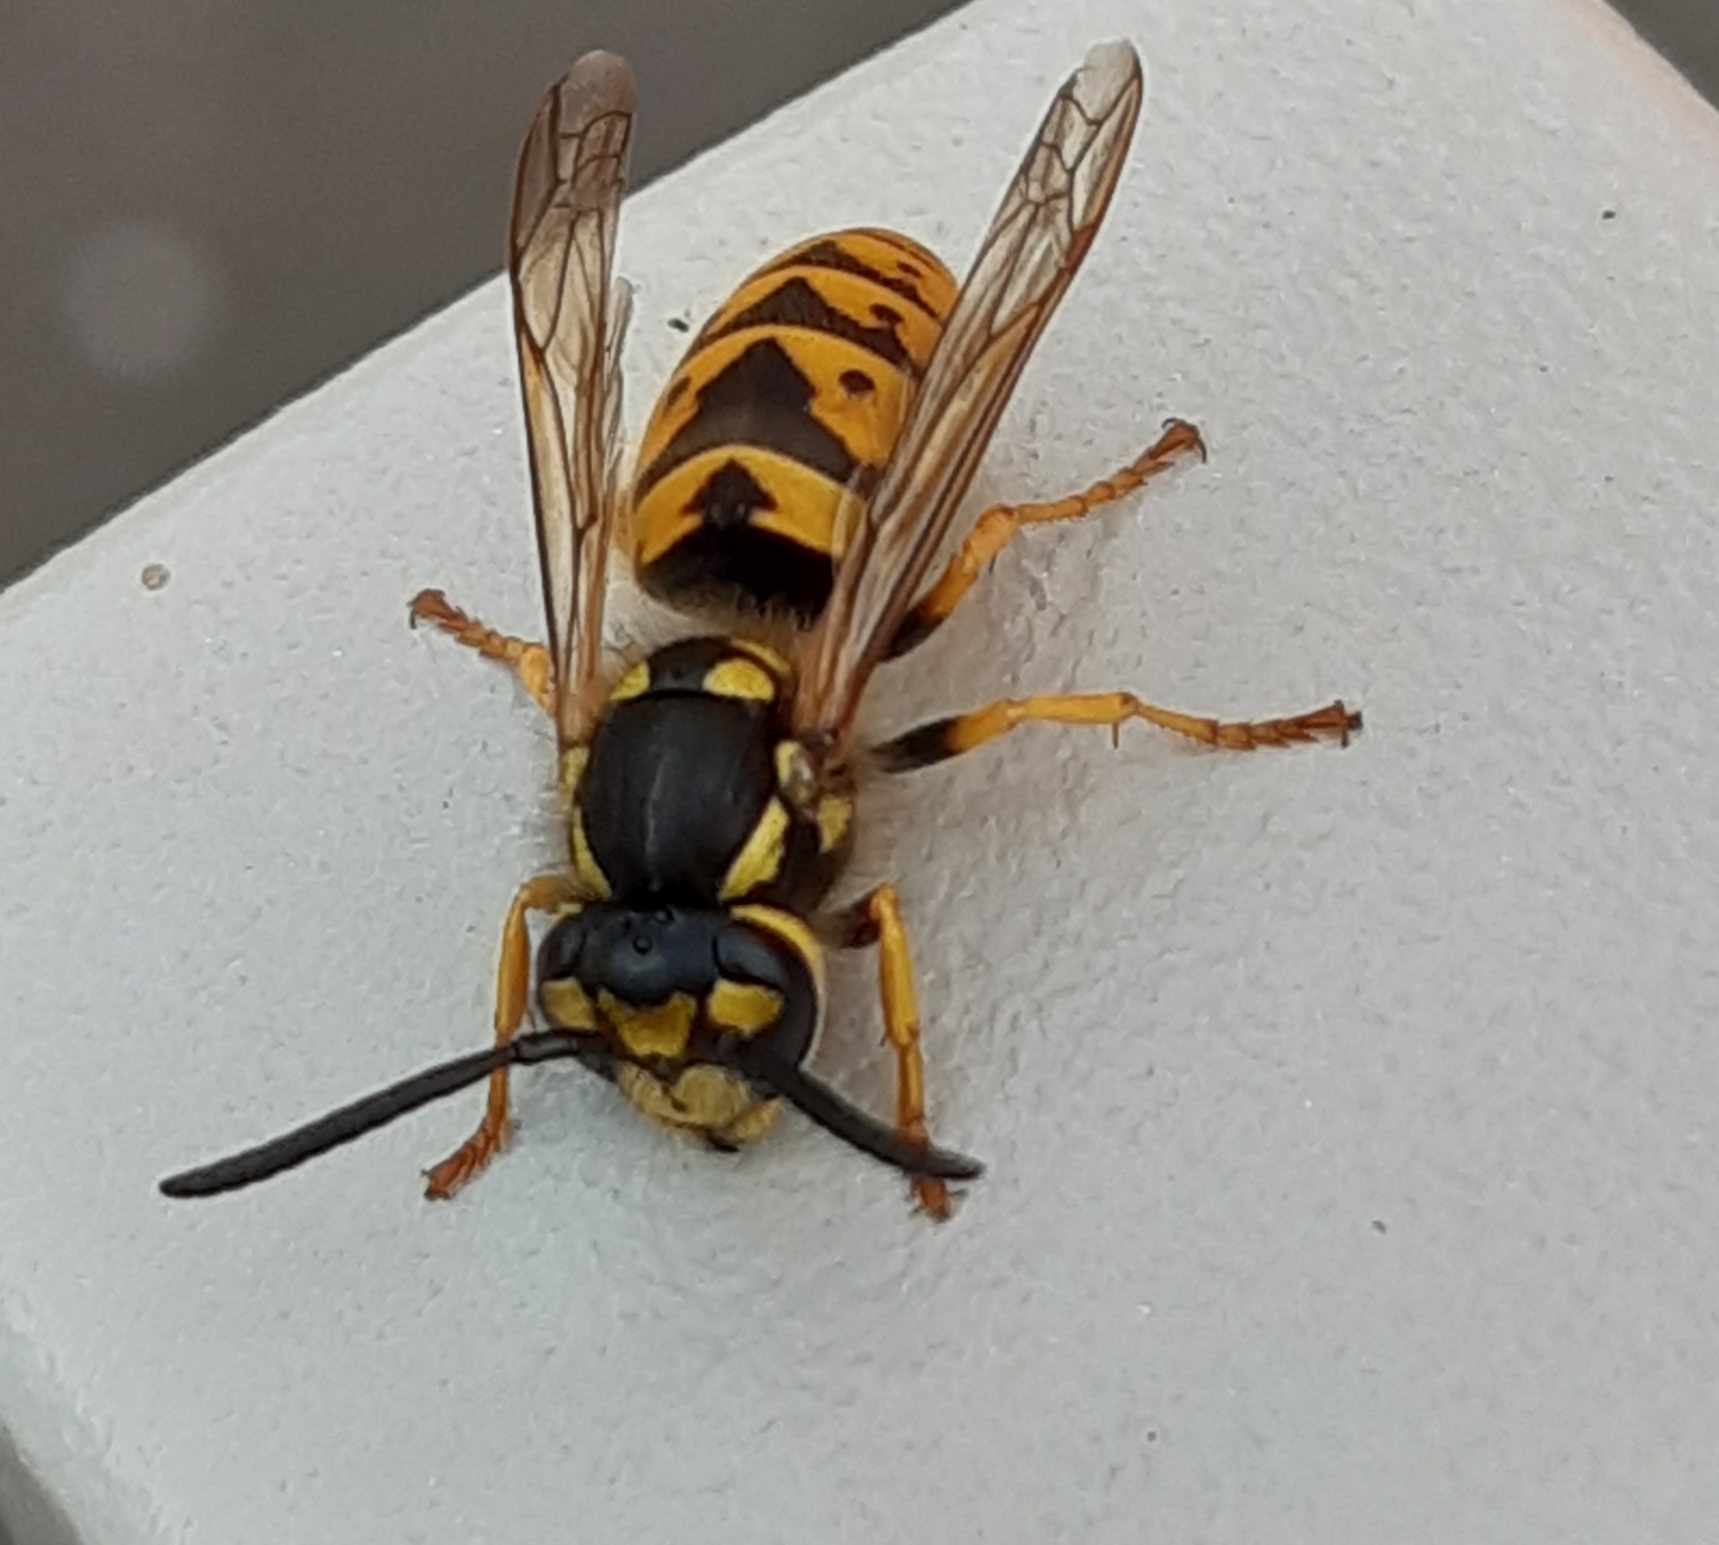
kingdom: Animalia
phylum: Arthropoda
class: Insecta
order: Hymenoptera
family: Vespidae
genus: Vespula
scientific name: Vespula germanica
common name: German wasp
